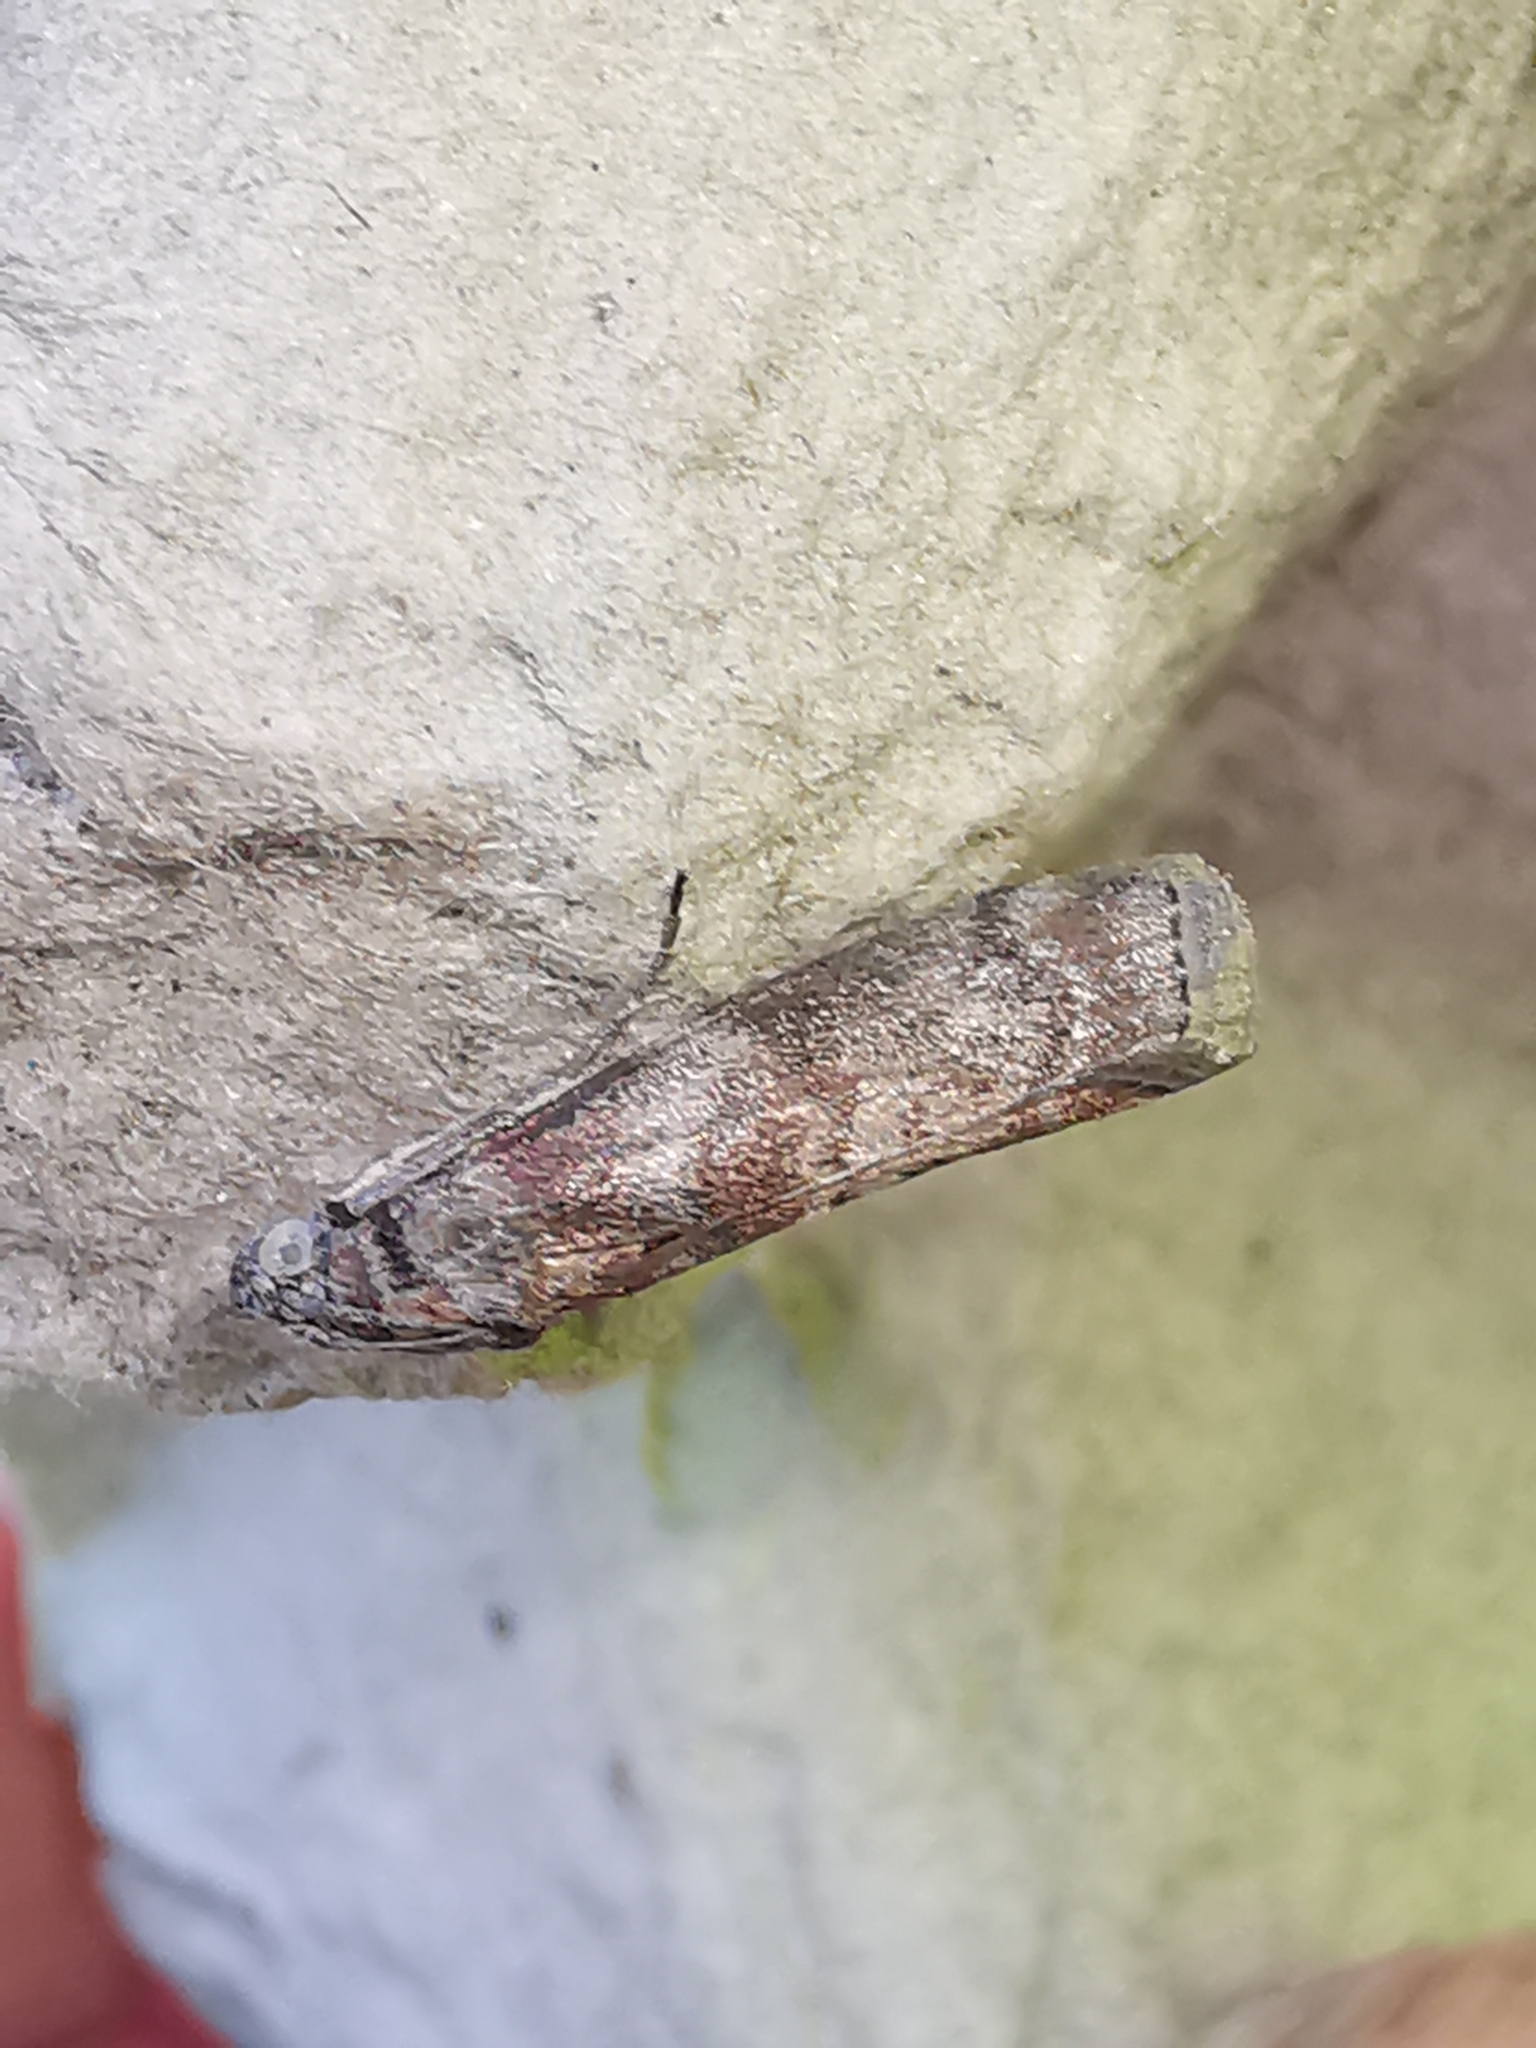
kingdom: Animalia
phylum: Arthropoda
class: Insecta
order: Lepidoptera
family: Pyralidae
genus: Phycita
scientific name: Phycita roborella
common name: Dotted oak knot-horn
